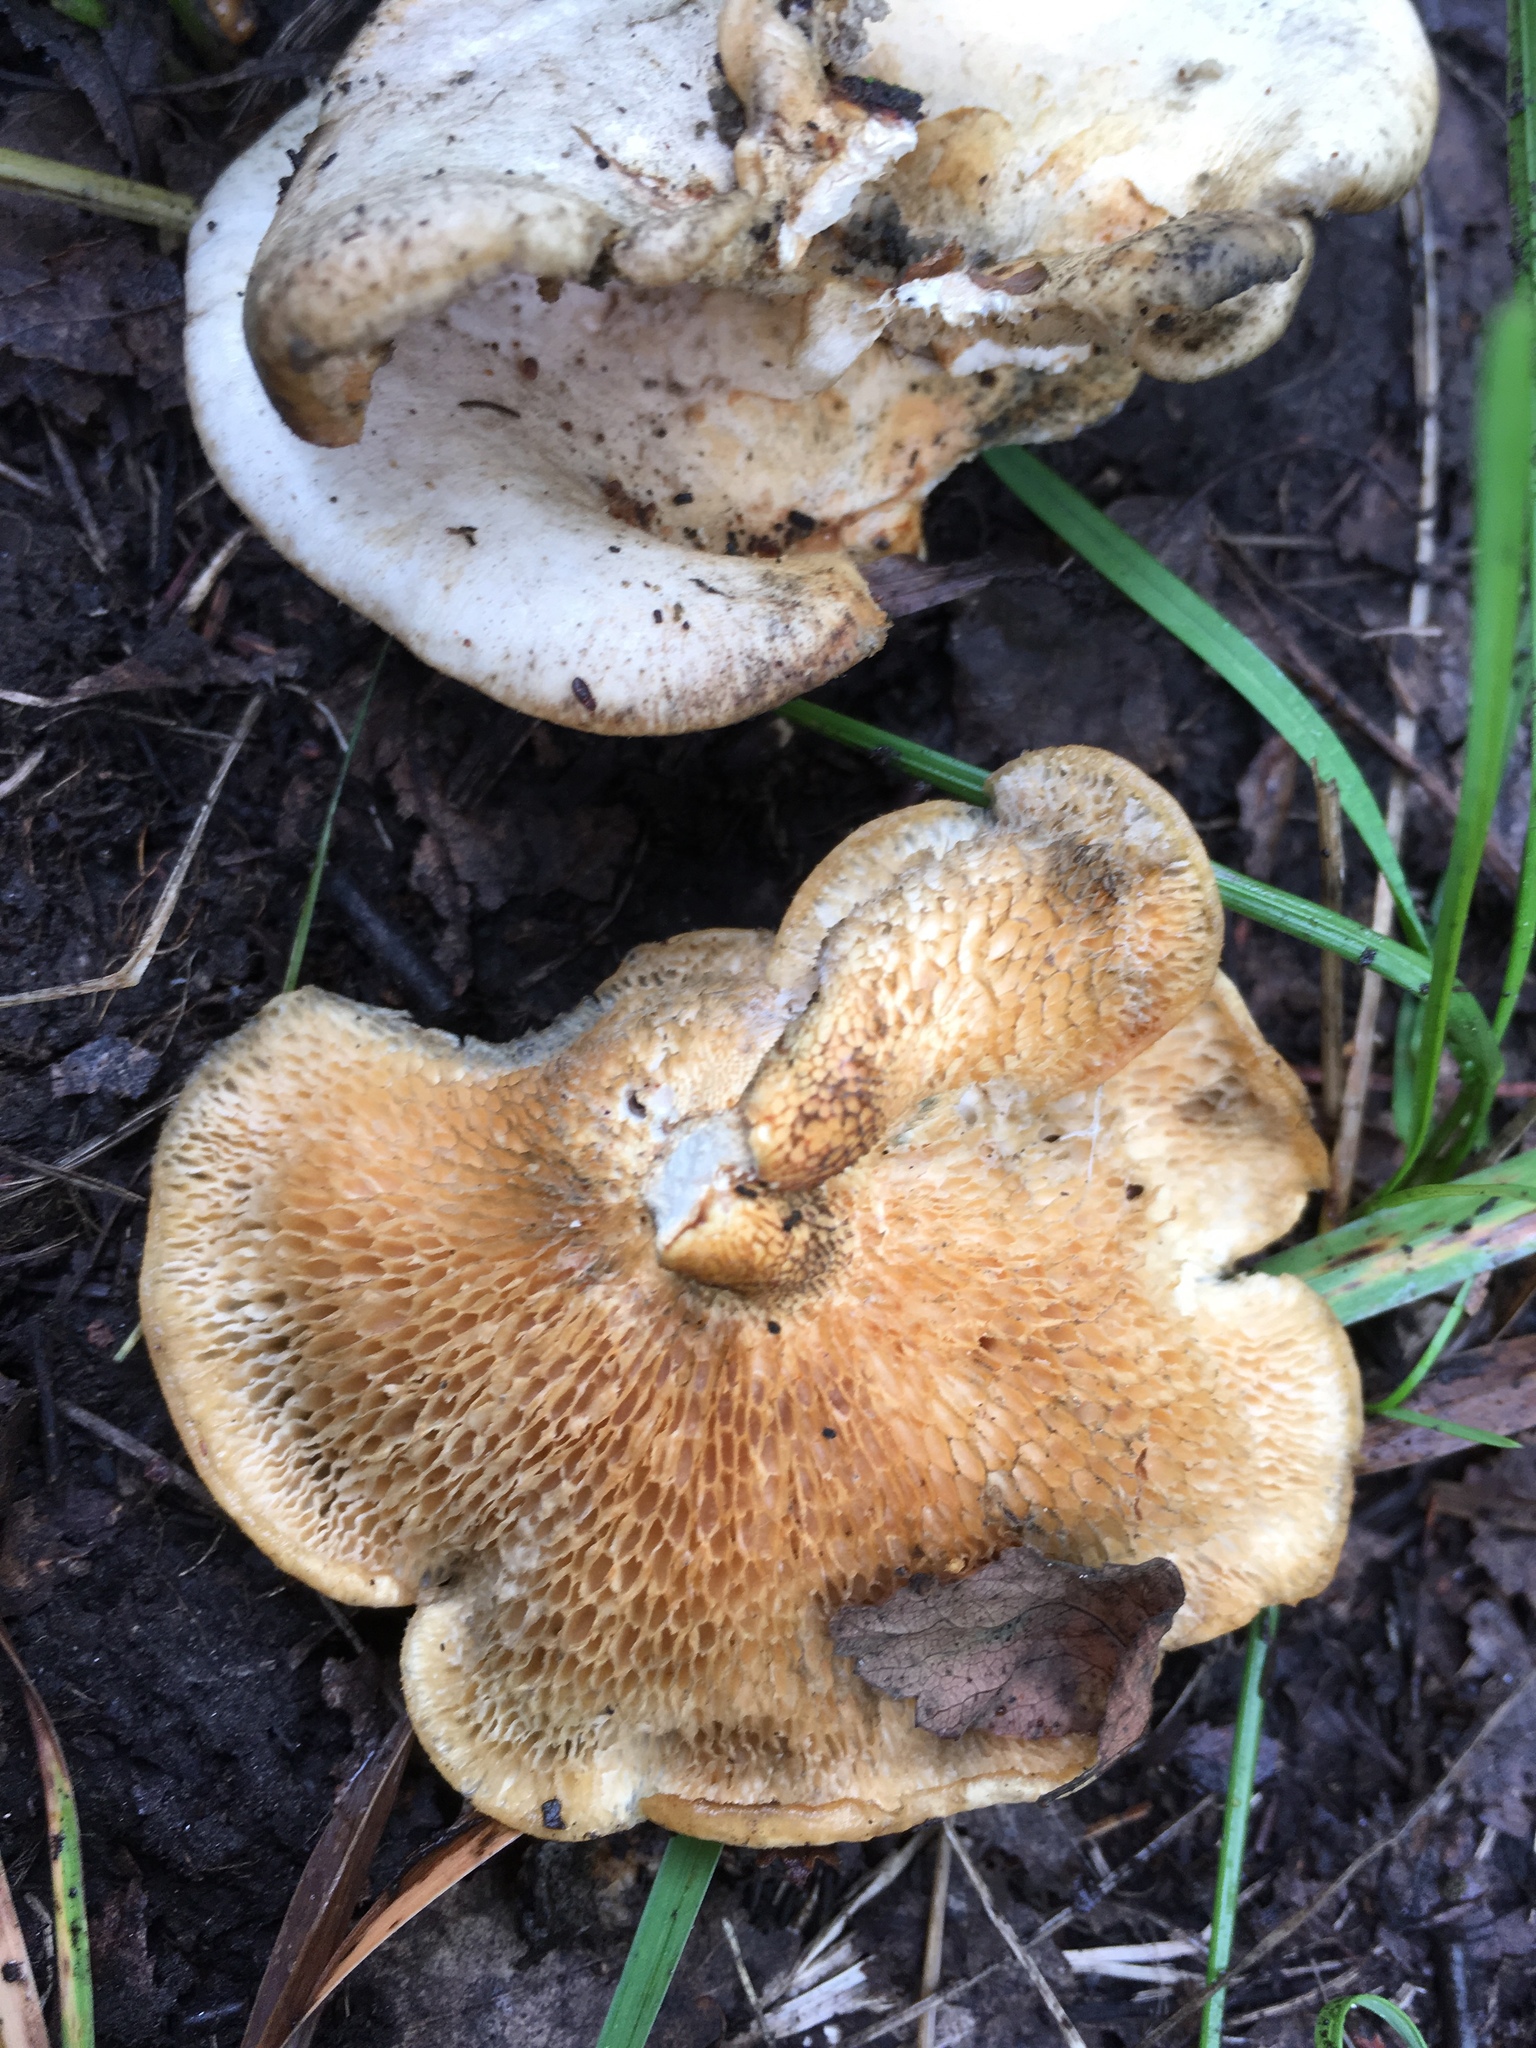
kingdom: Fungi
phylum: Basidiomycota
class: Agaricomycetes
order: Polyporales
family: Polyporaceae
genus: Polyporus
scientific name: Polyporus tuberaster
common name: Tuberous polypore
